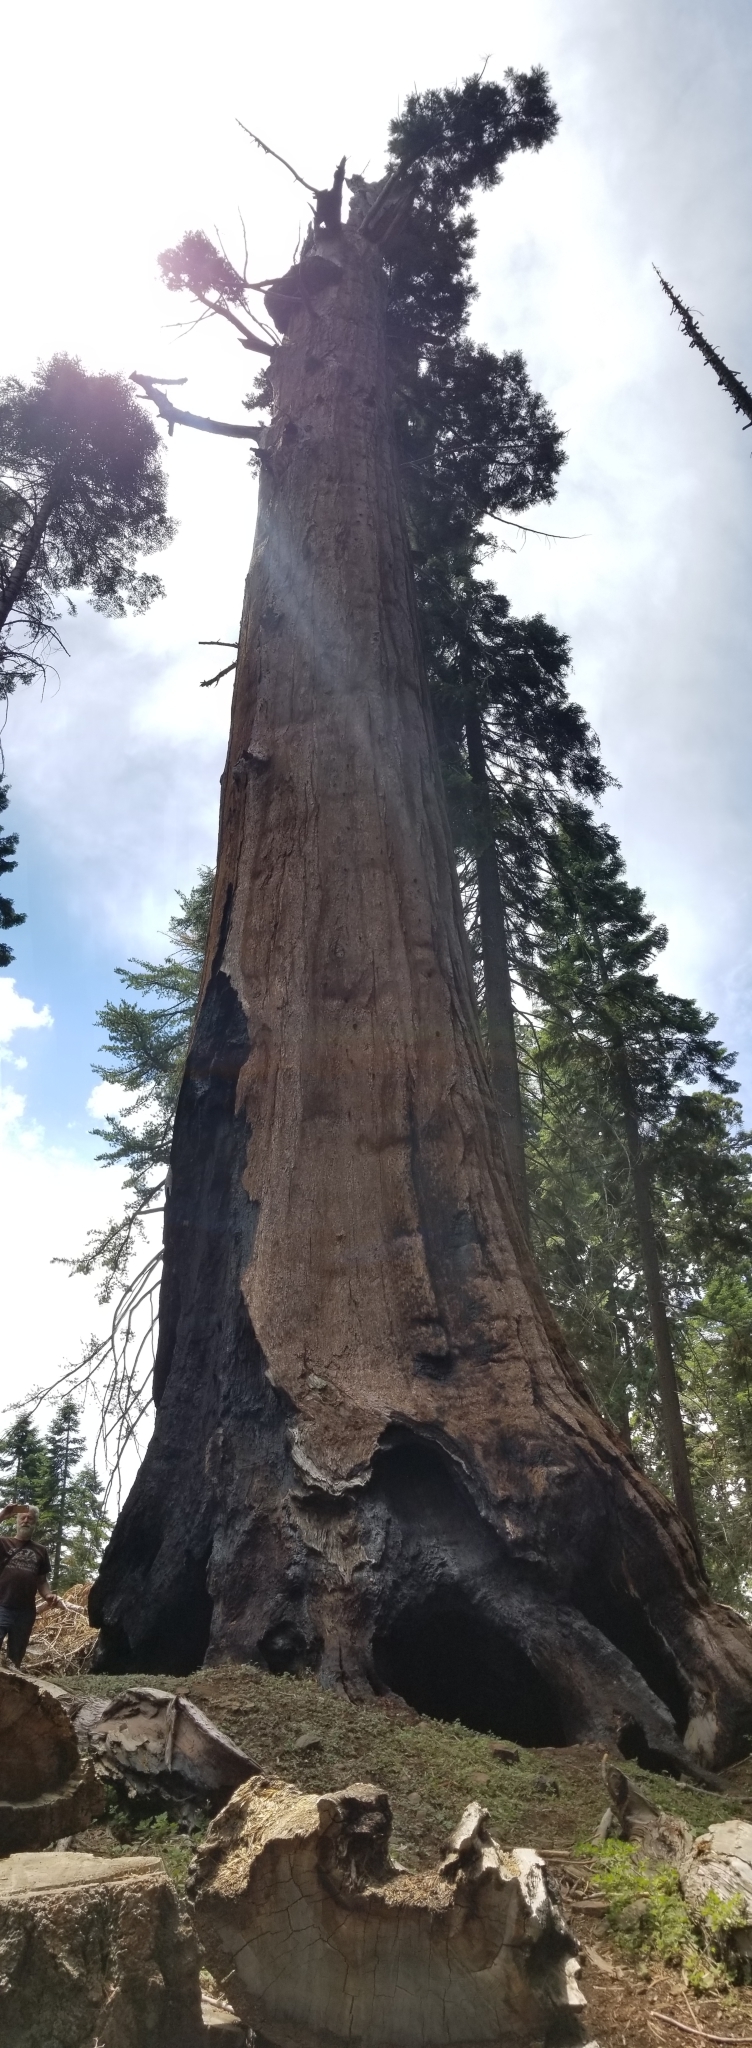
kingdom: Plantae
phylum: Tracheophyta
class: Pinopsida
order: Pinales
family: Cupressaceae
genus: Sequoiadendron
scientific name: Sequoiadendron giganteum
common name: Wellingtonia
